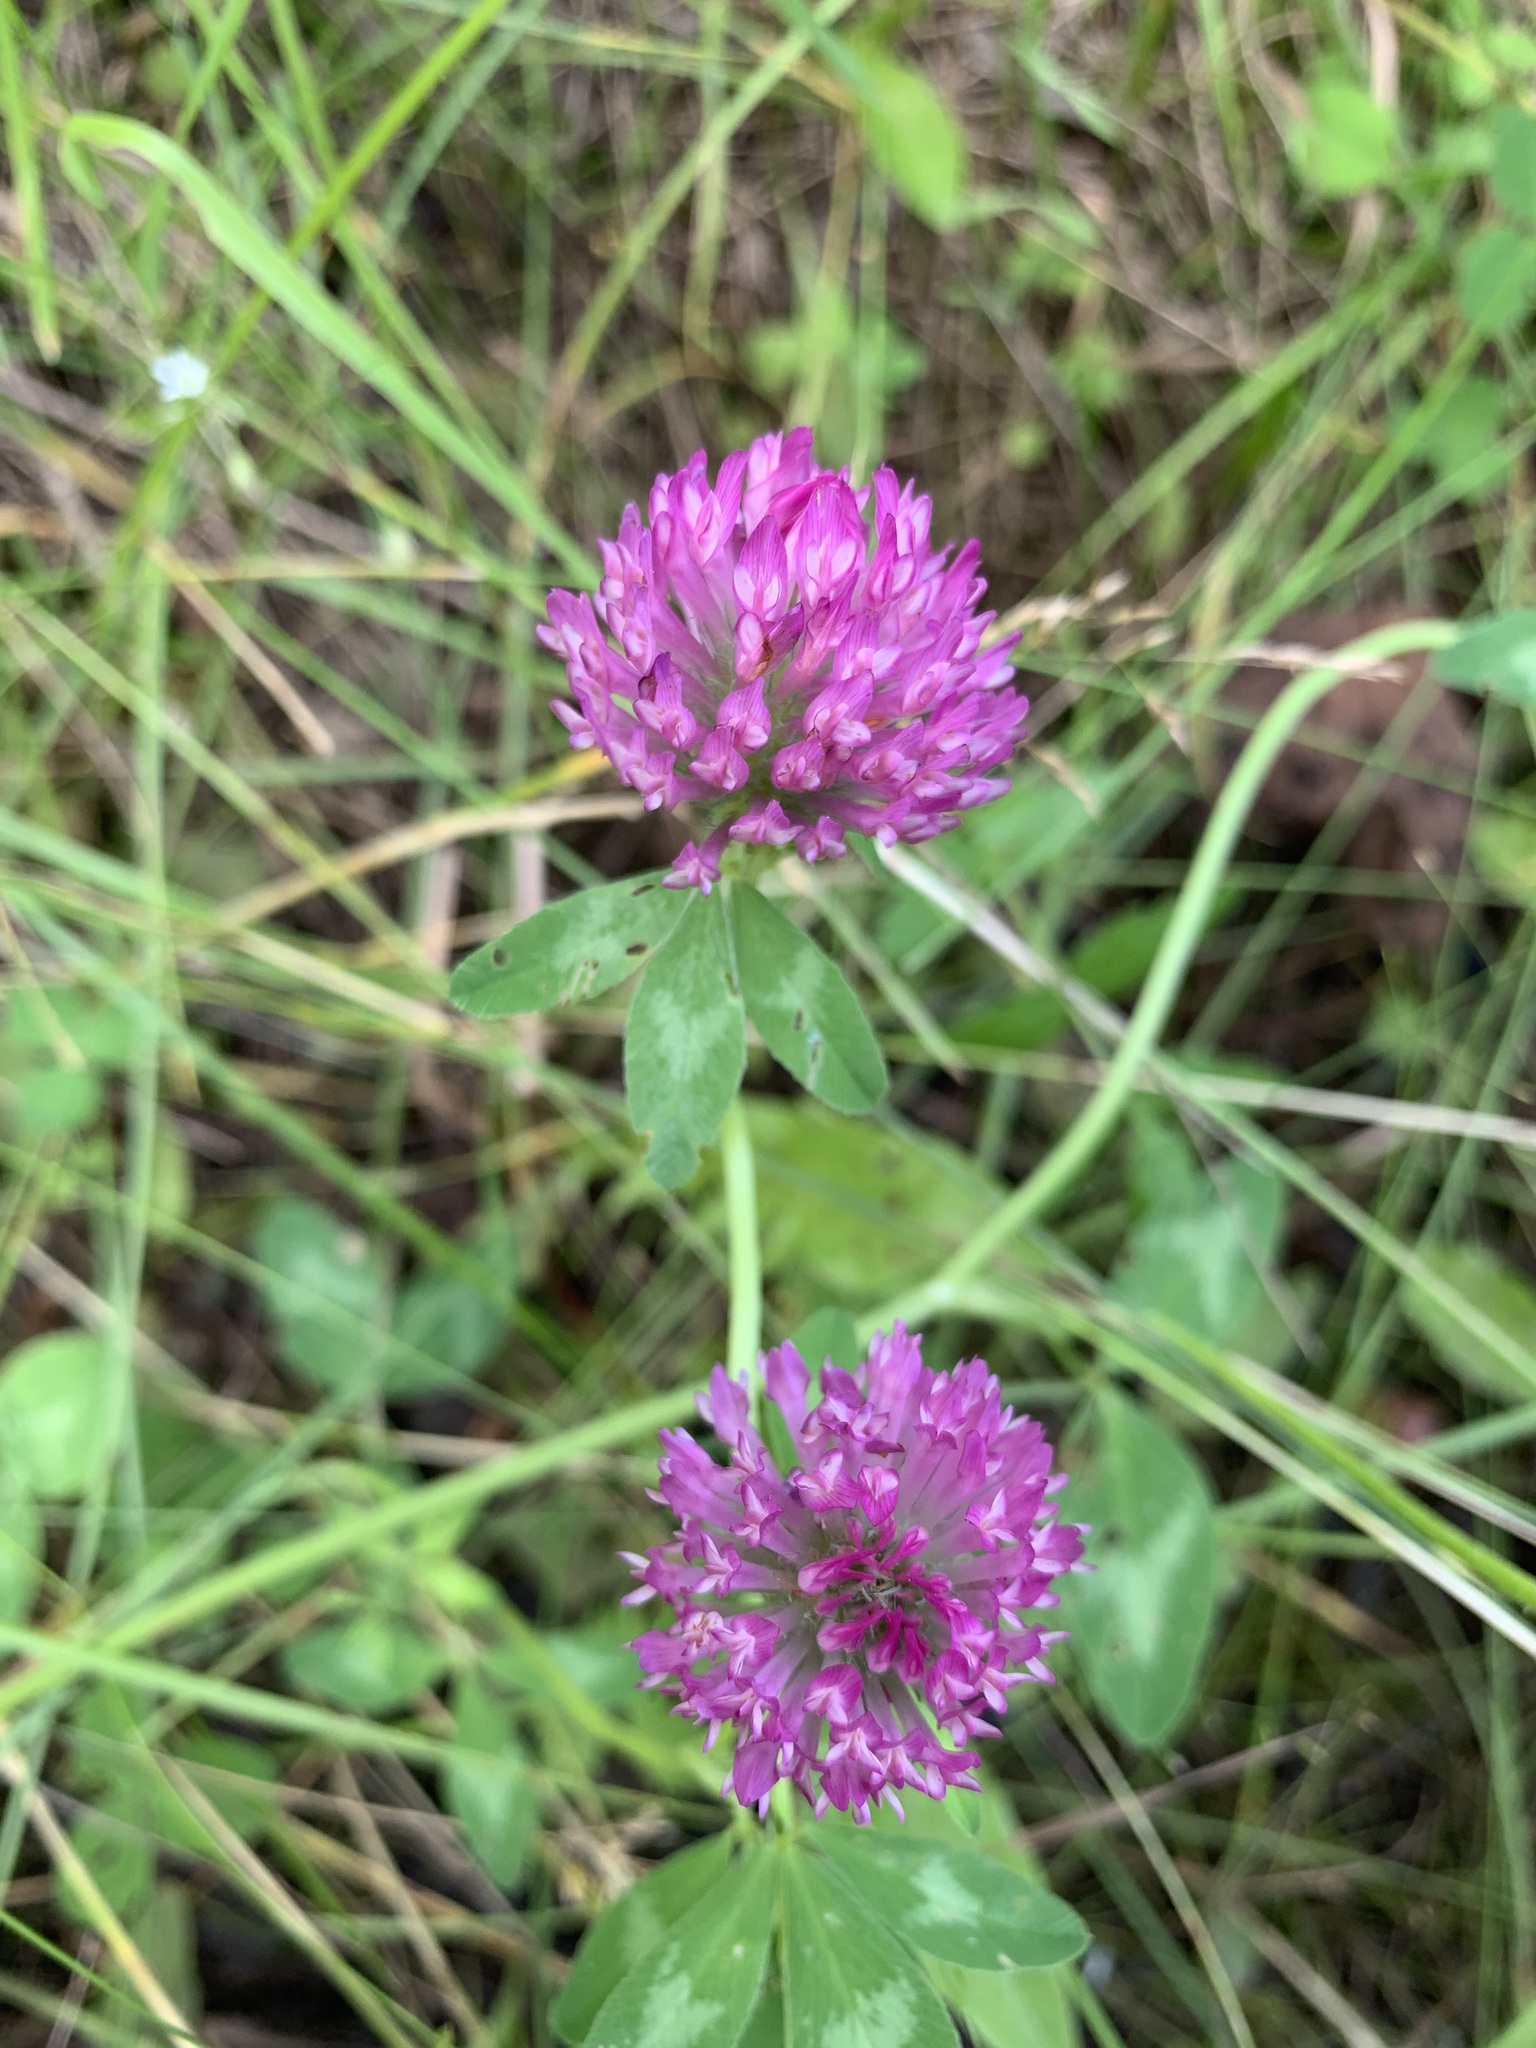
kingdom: Plantae
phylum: Tracheophyta
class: Magnoliopsida
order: Fabales
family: Fabaceae
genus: Trifolium
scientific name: Trifolium pratense
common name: Red clover
